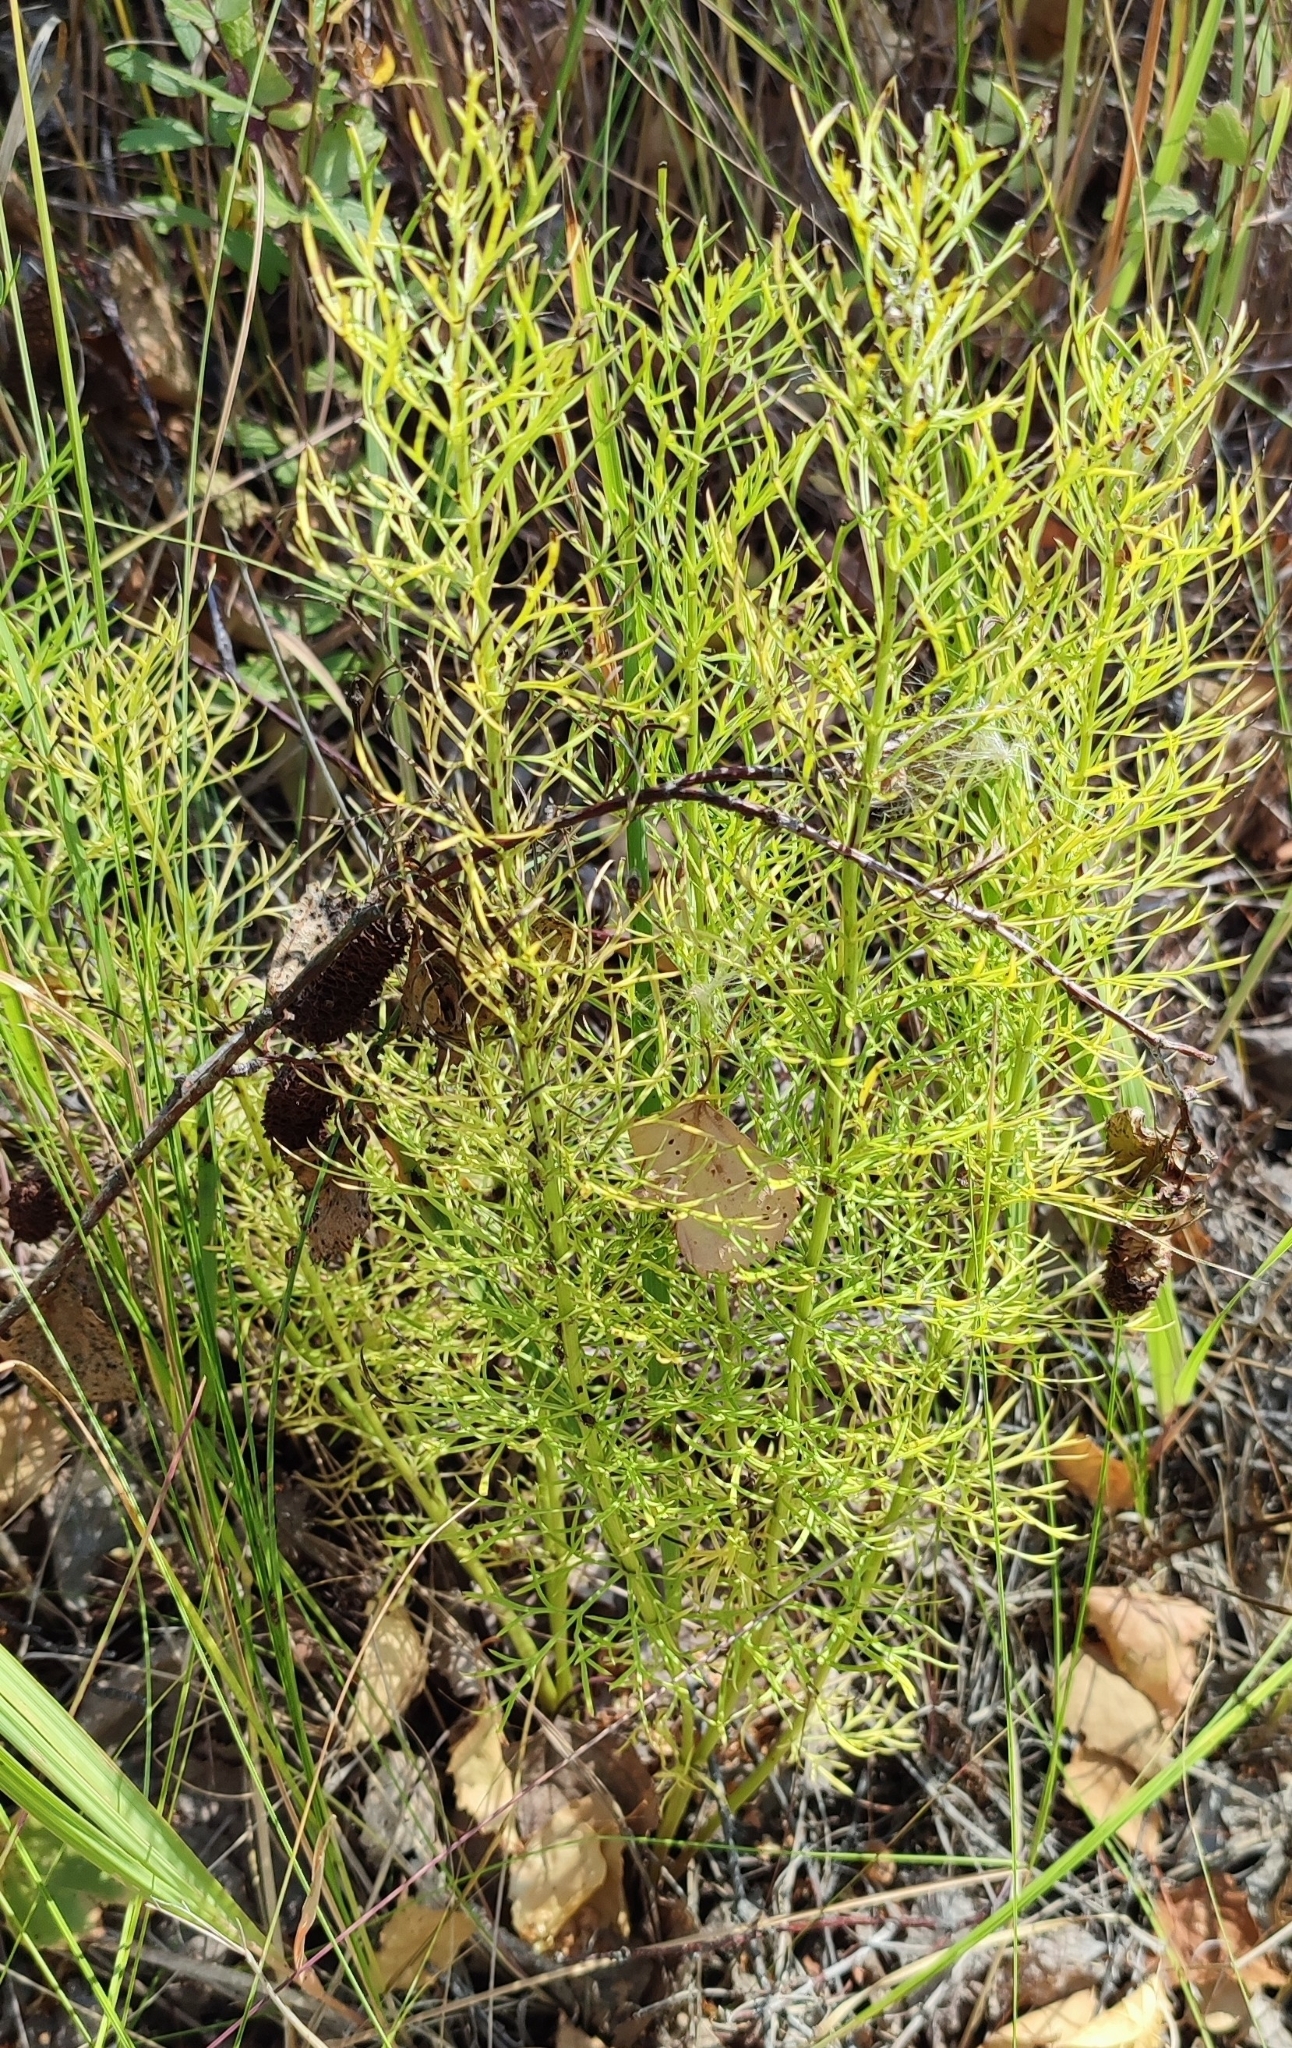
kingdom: Plantae
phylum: Tracheophyta
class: Magnoliopsida
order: Ranunculales
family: Ranunculaceae
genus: Adonis
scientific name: Adonis vernalis
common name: Yellow pheasants-eye
